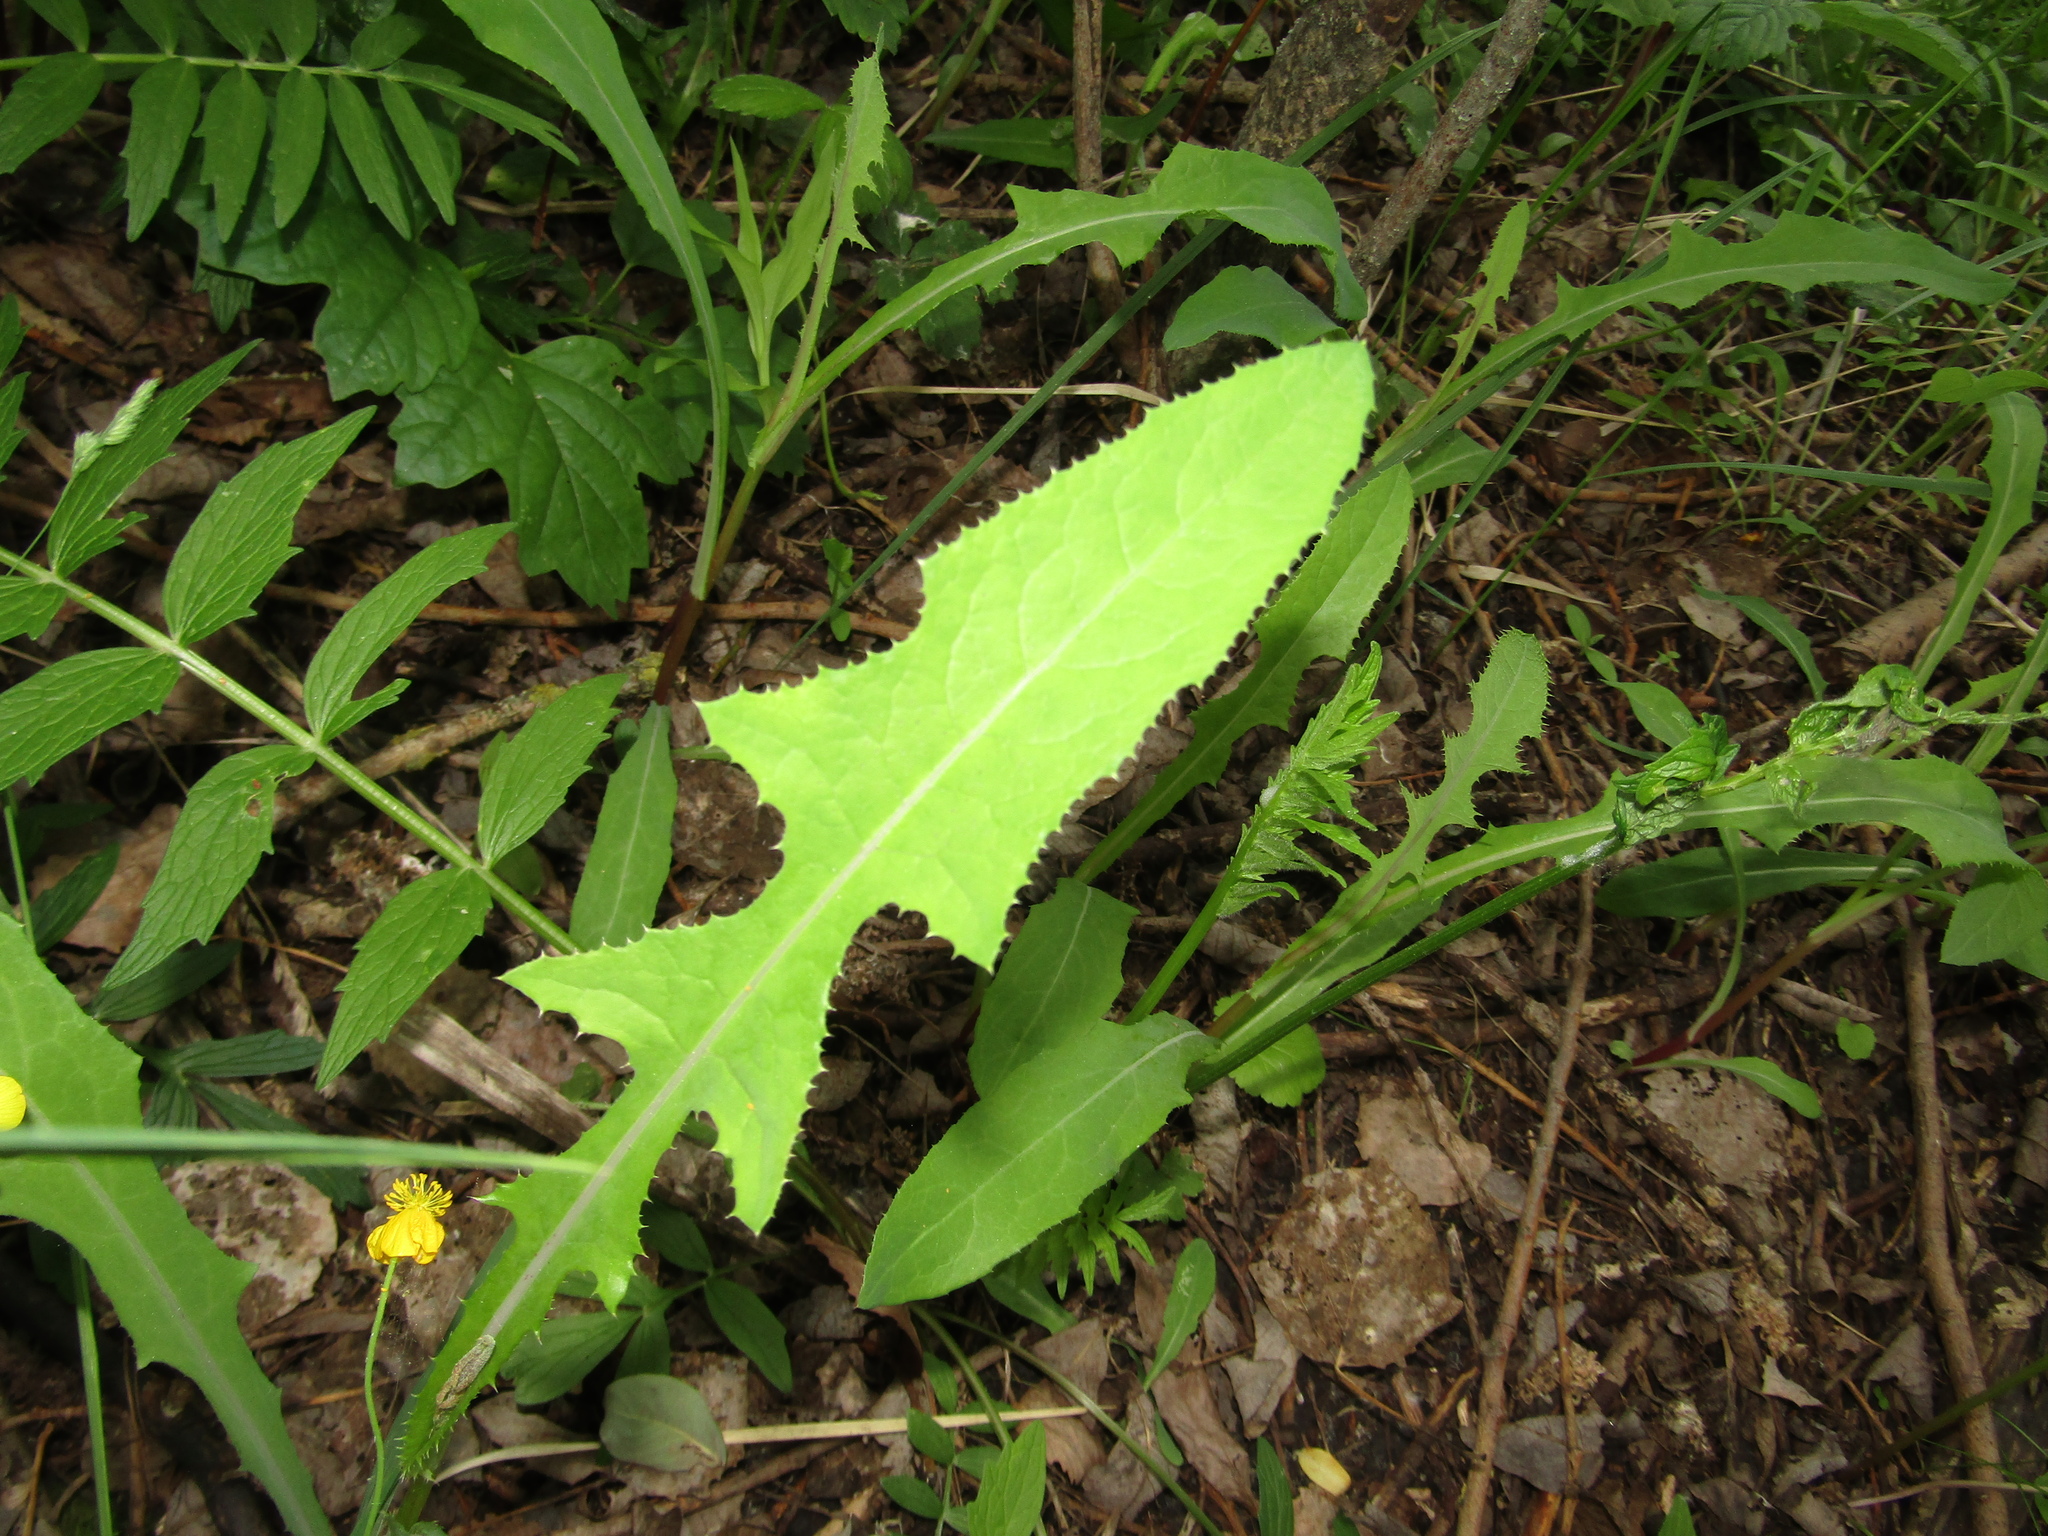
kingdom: Plantae
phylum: Tracheophyta
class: Magnoliopsida
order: Asterales
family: Asteraceae
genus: Sonchus
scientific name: Sonchus arvensis
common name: Perennial sow-thistle
